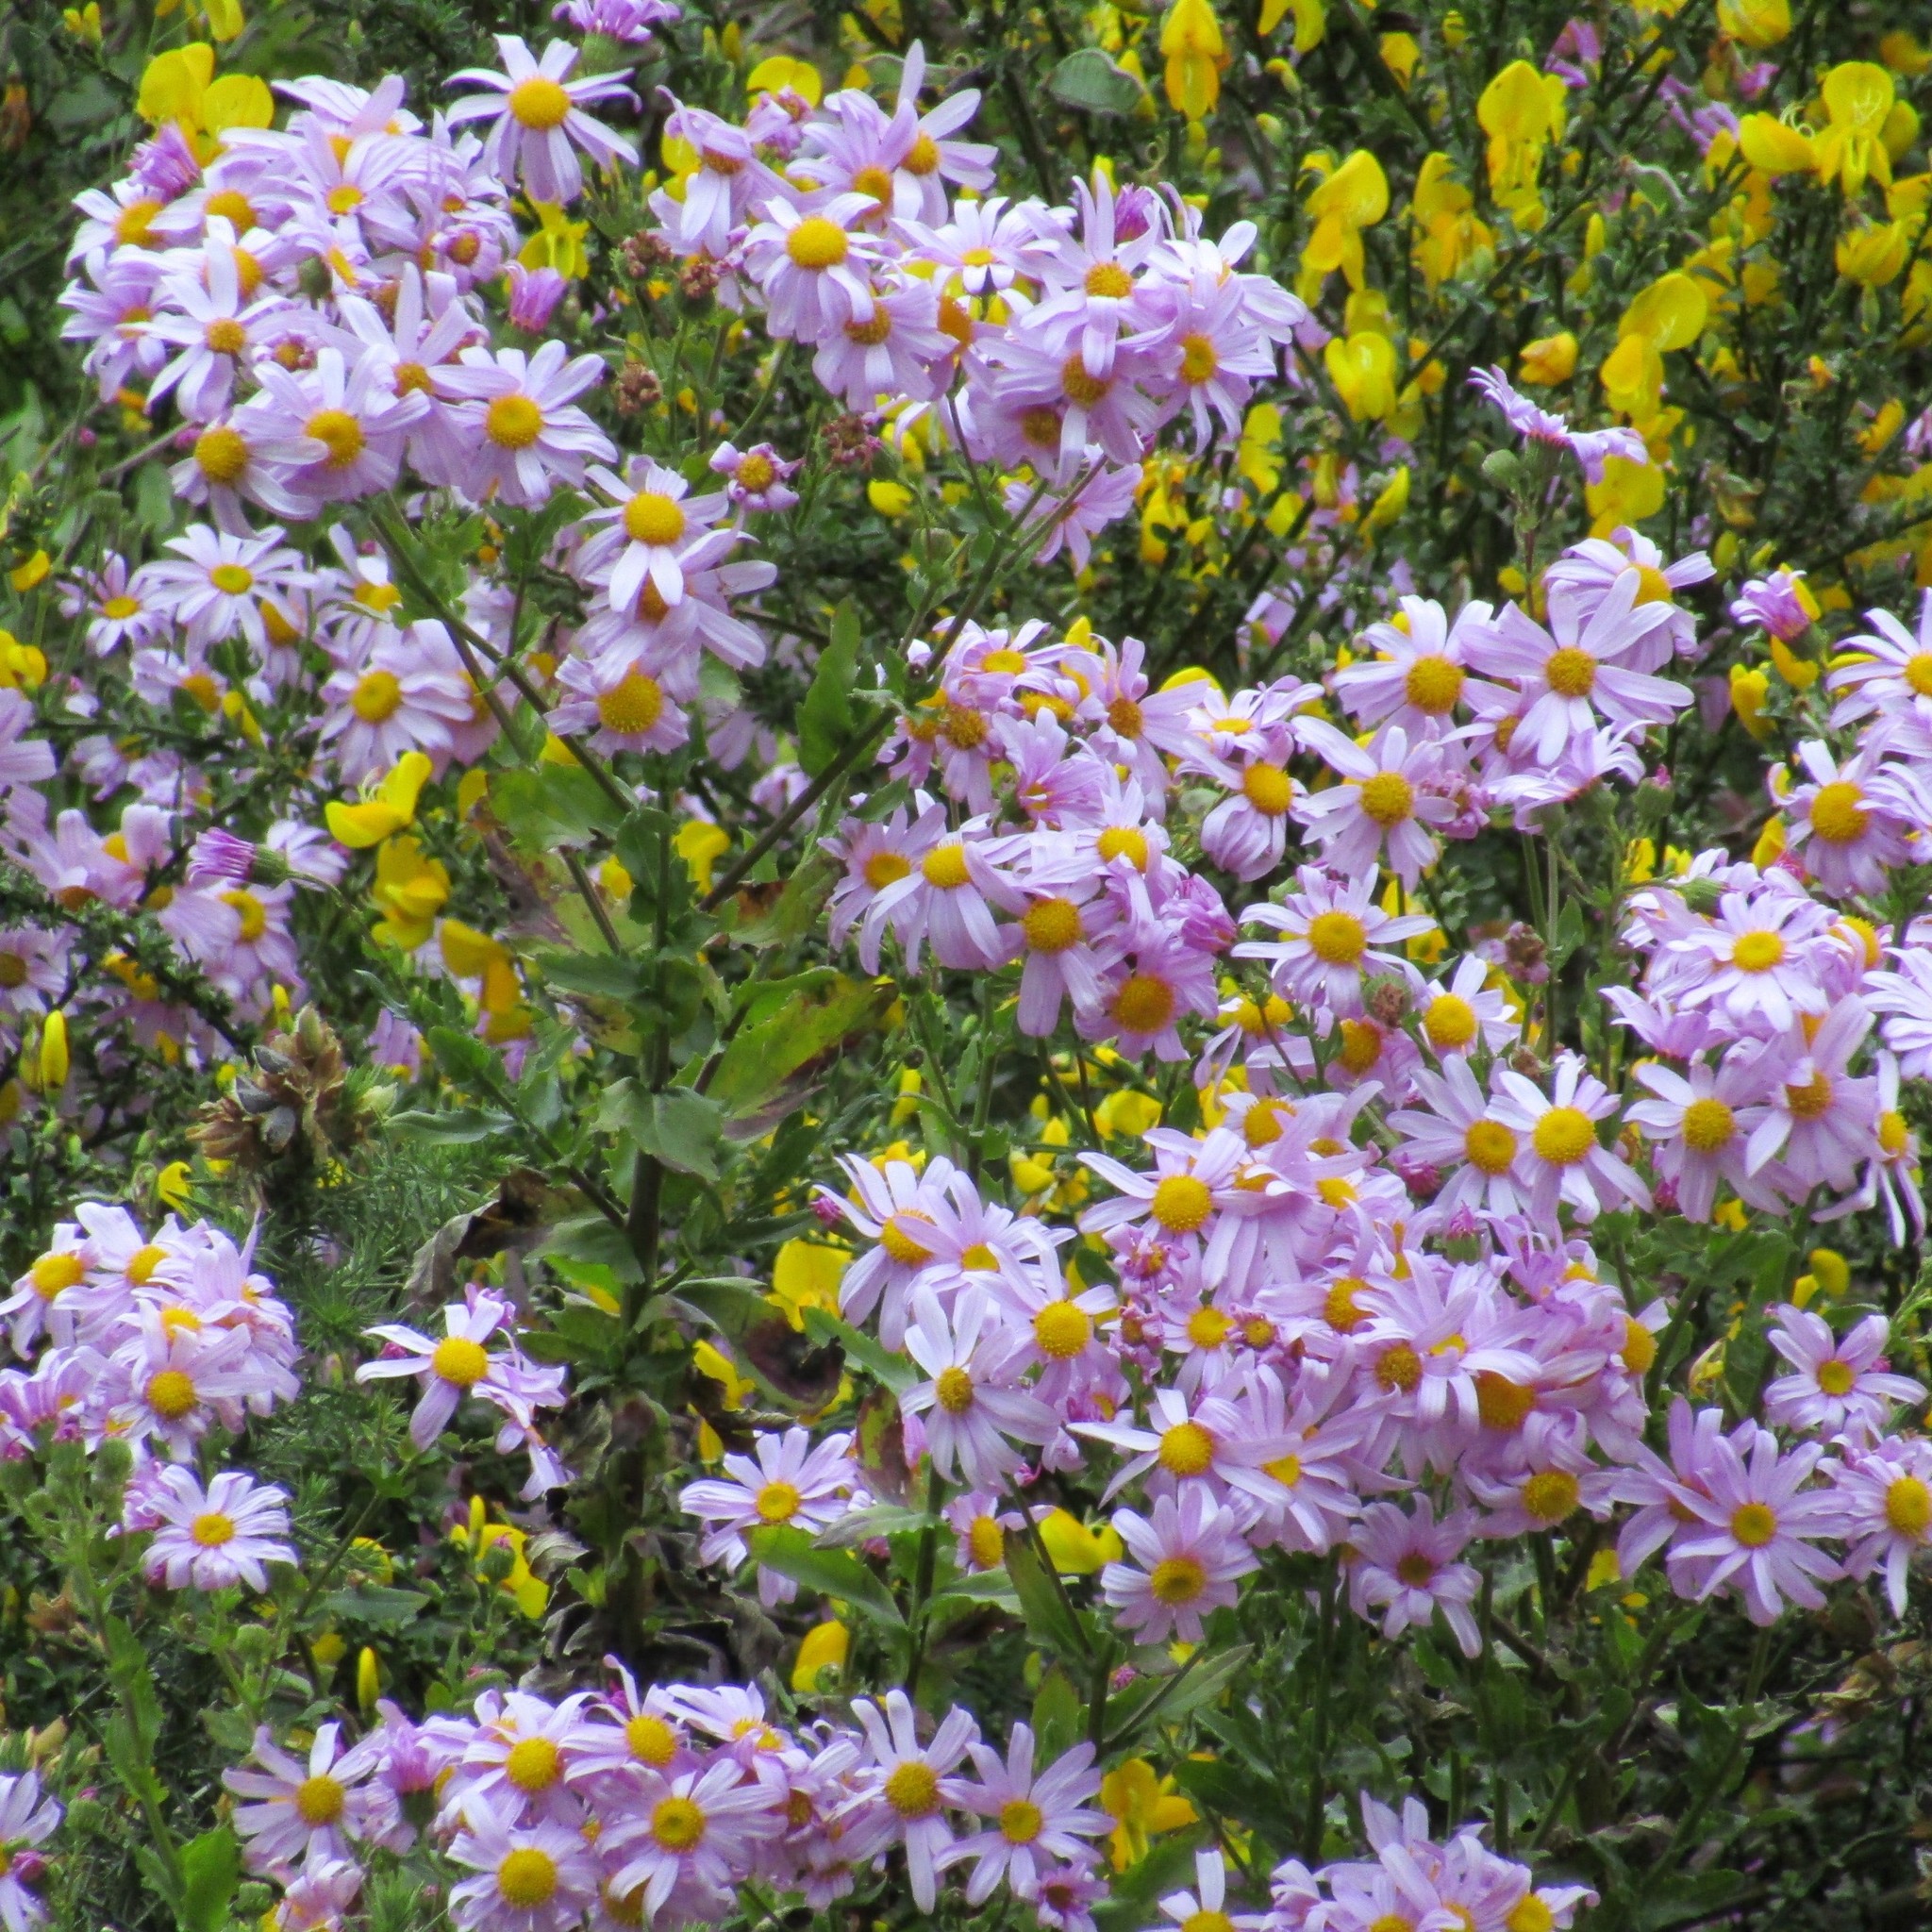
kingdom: Plantae
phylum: Tracheophyta
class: Magnoliopsida
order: Asterales
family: Asteraceae
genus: Senecio
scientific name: Senecio glastifolius
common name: Woad-leaved ragwort
